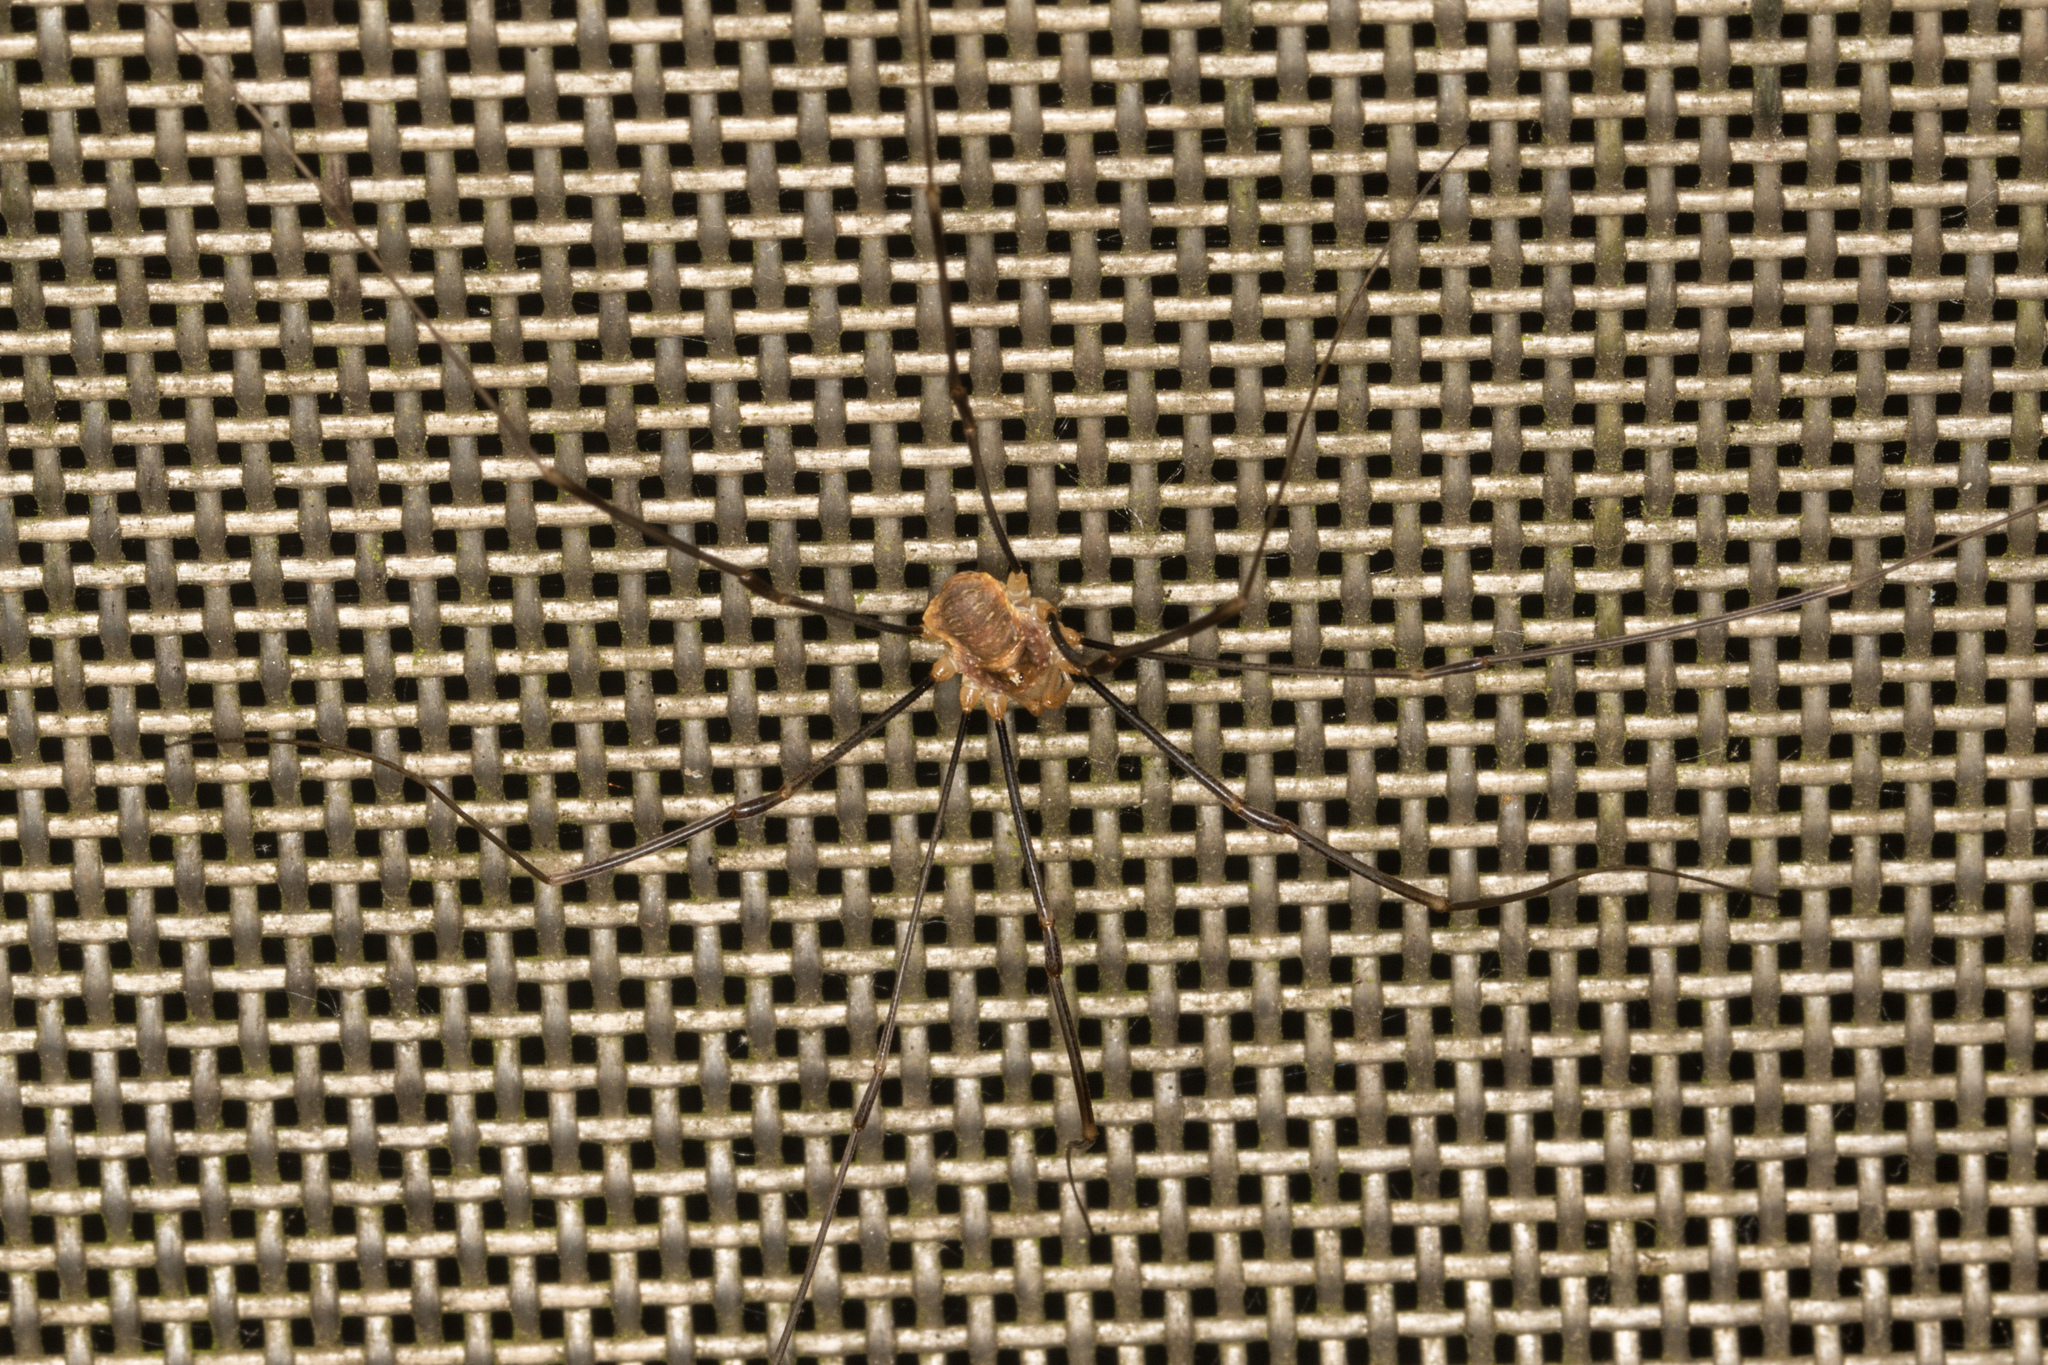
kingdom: Animalia
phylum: Arthropoda
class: Arachnida
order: Opiliones
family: Phalangiidae
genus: Opilio
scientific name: Opilio canestrinii
